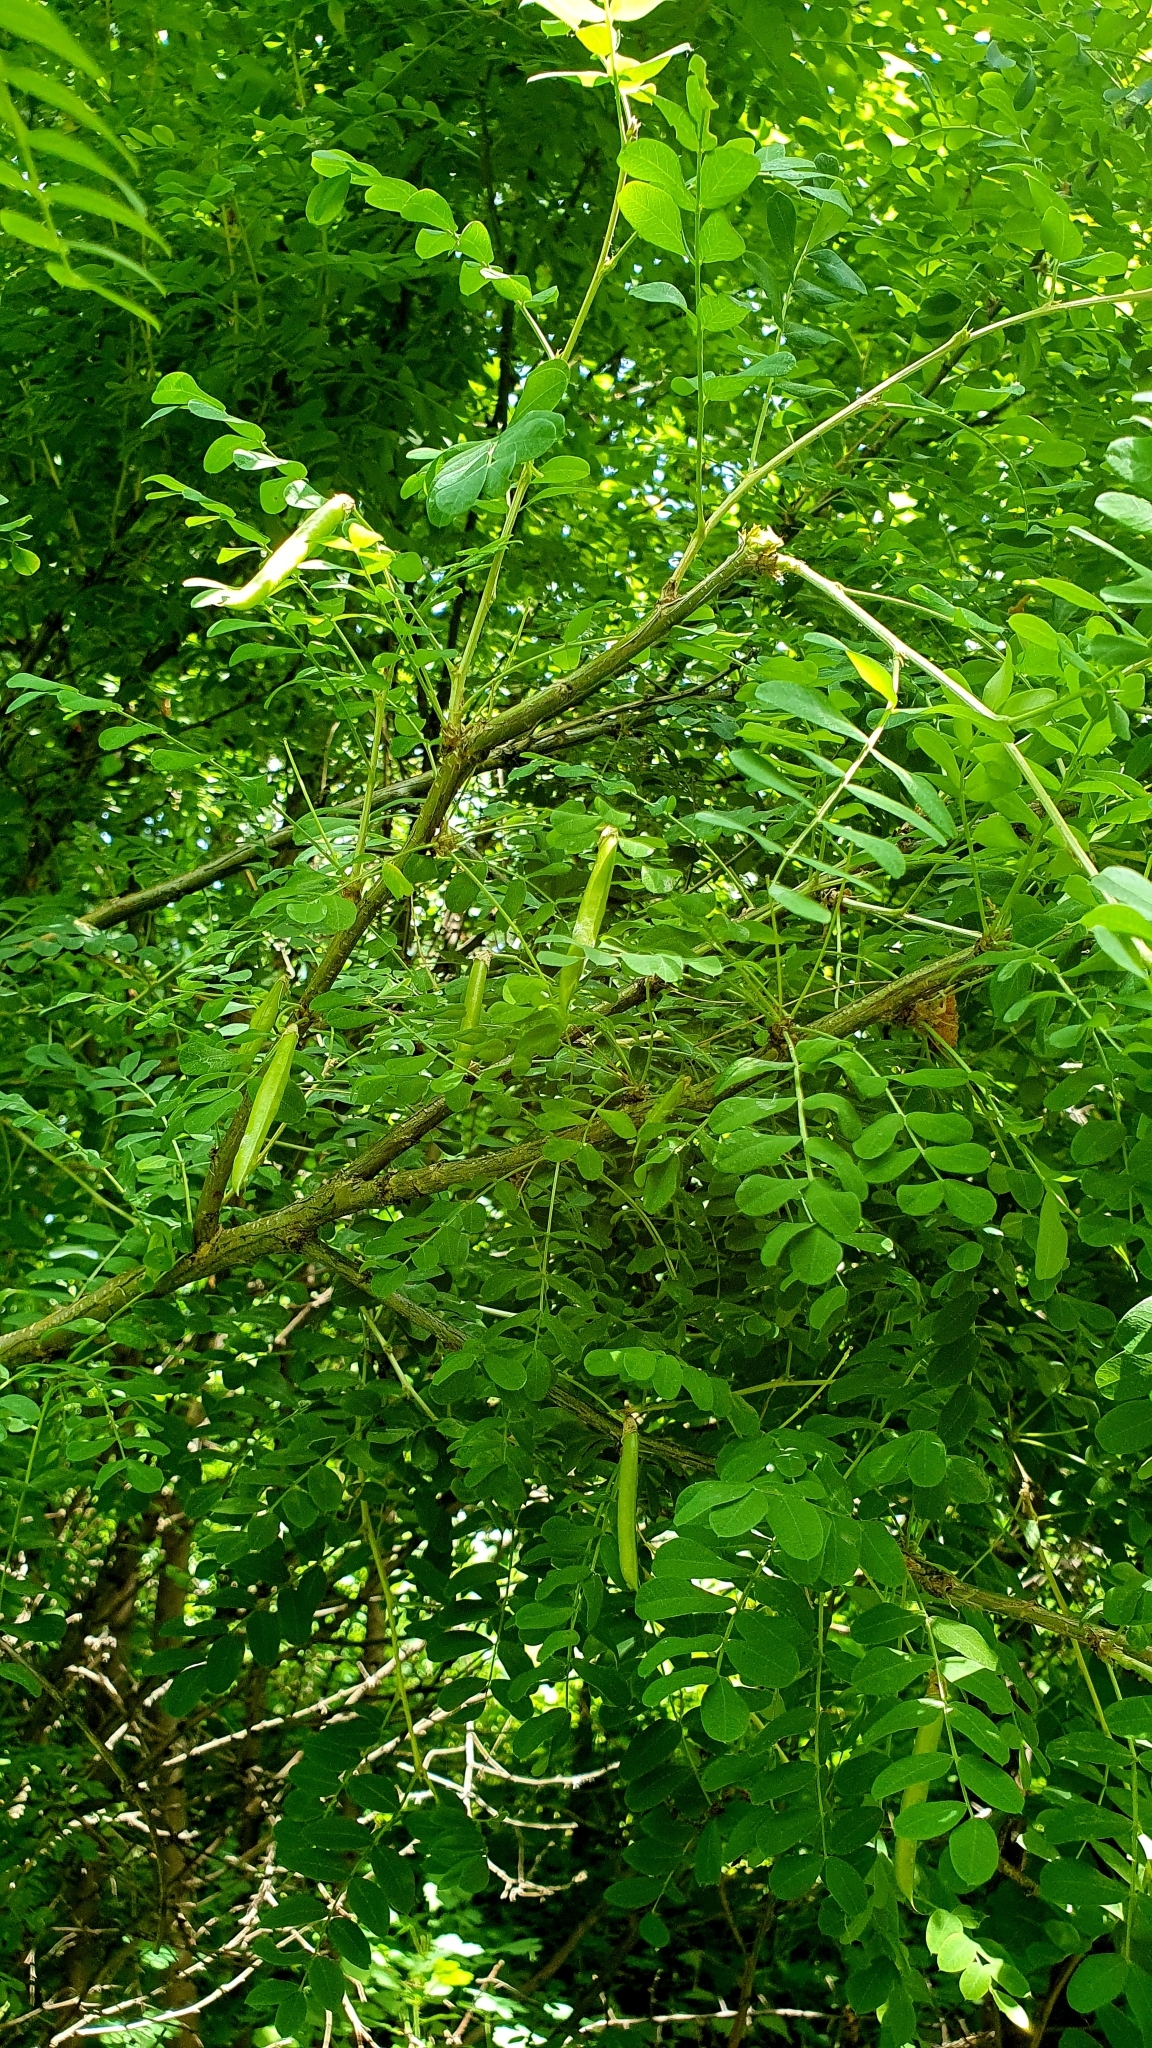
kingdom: Plantae
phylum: Tracheophyta
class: Magnoliopsida
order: Fabales
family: Fabaceae
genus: Caragana
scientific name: Caragana arborescens
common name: Siberian peashrub
